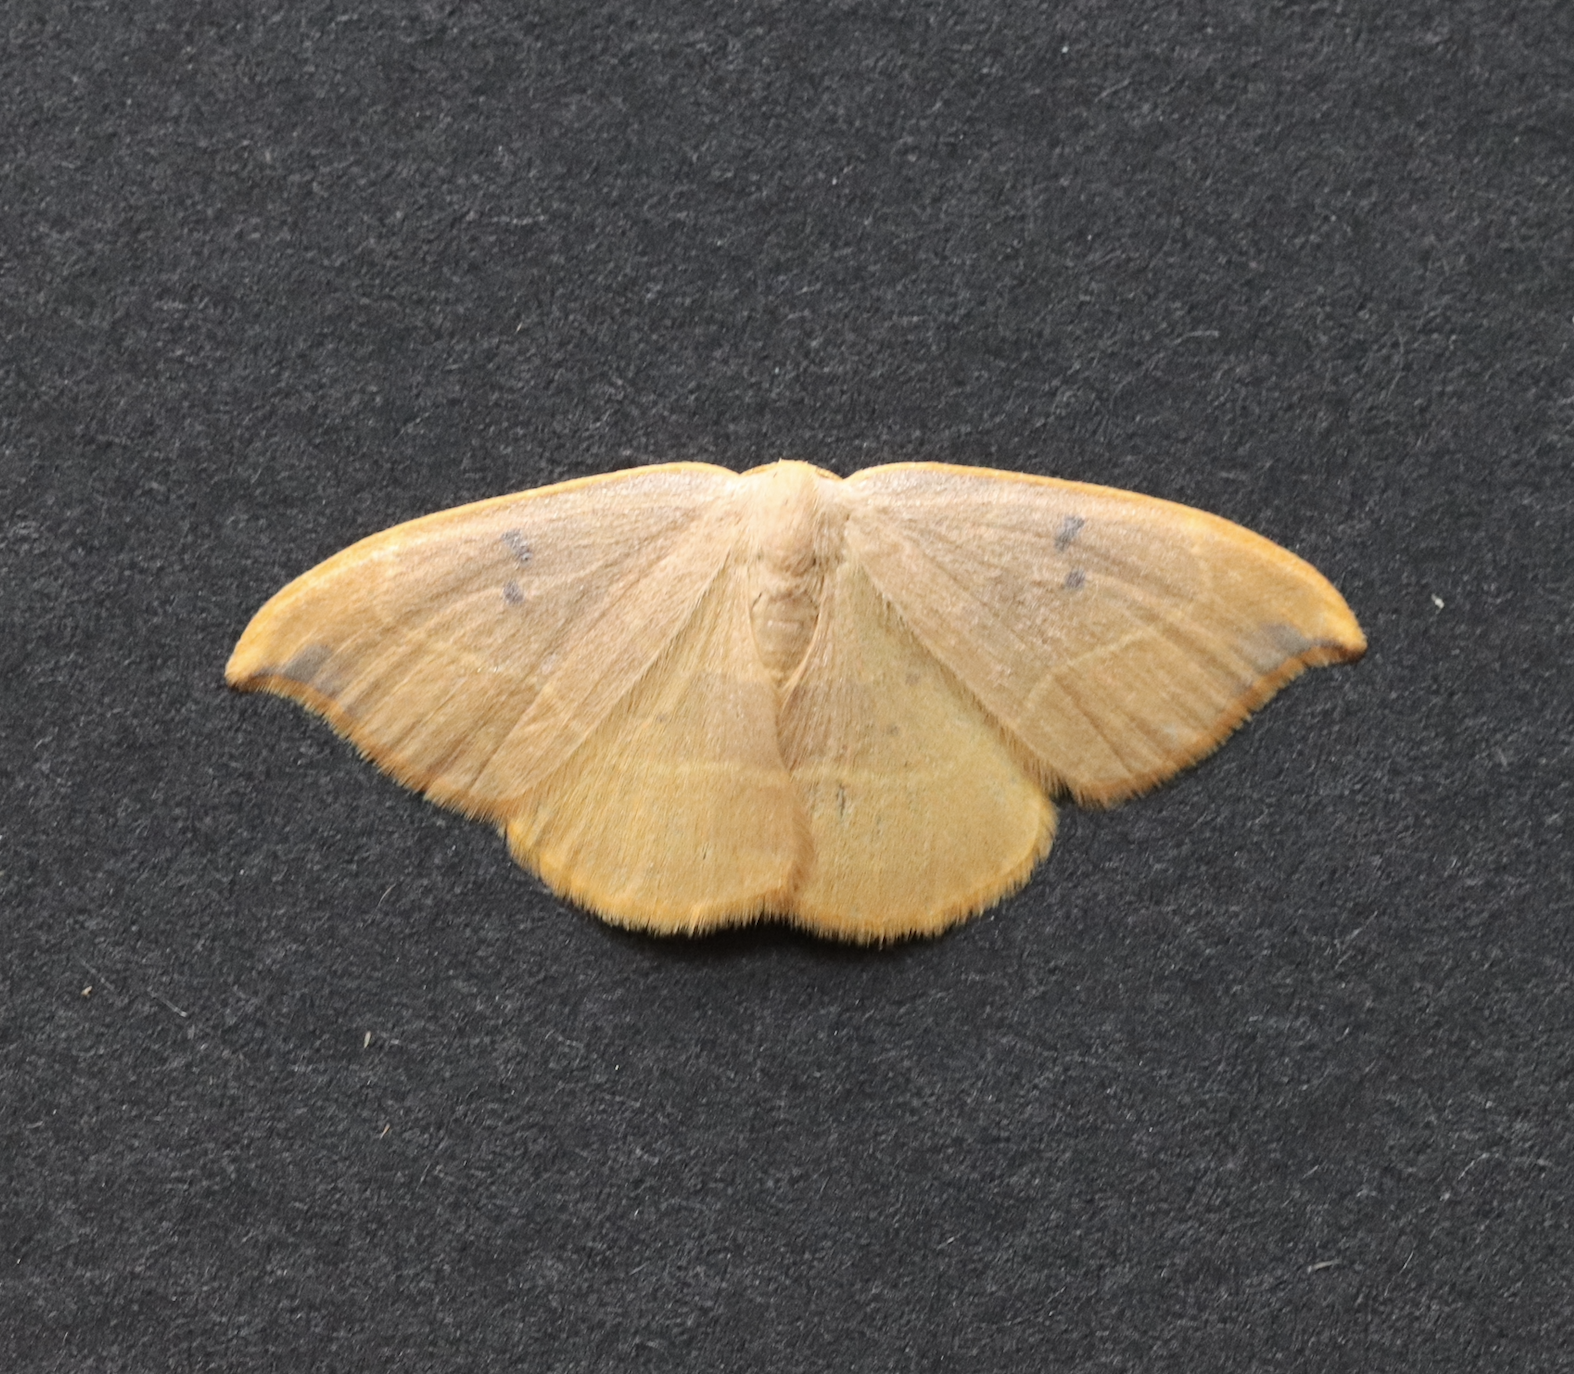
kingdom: Animalia
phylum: Arthropoda
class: Insecta
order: Lepidoptera
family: Drepanidae
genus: Watsonalla
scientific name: Watsonalla binaria
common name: Oak hook-tip
